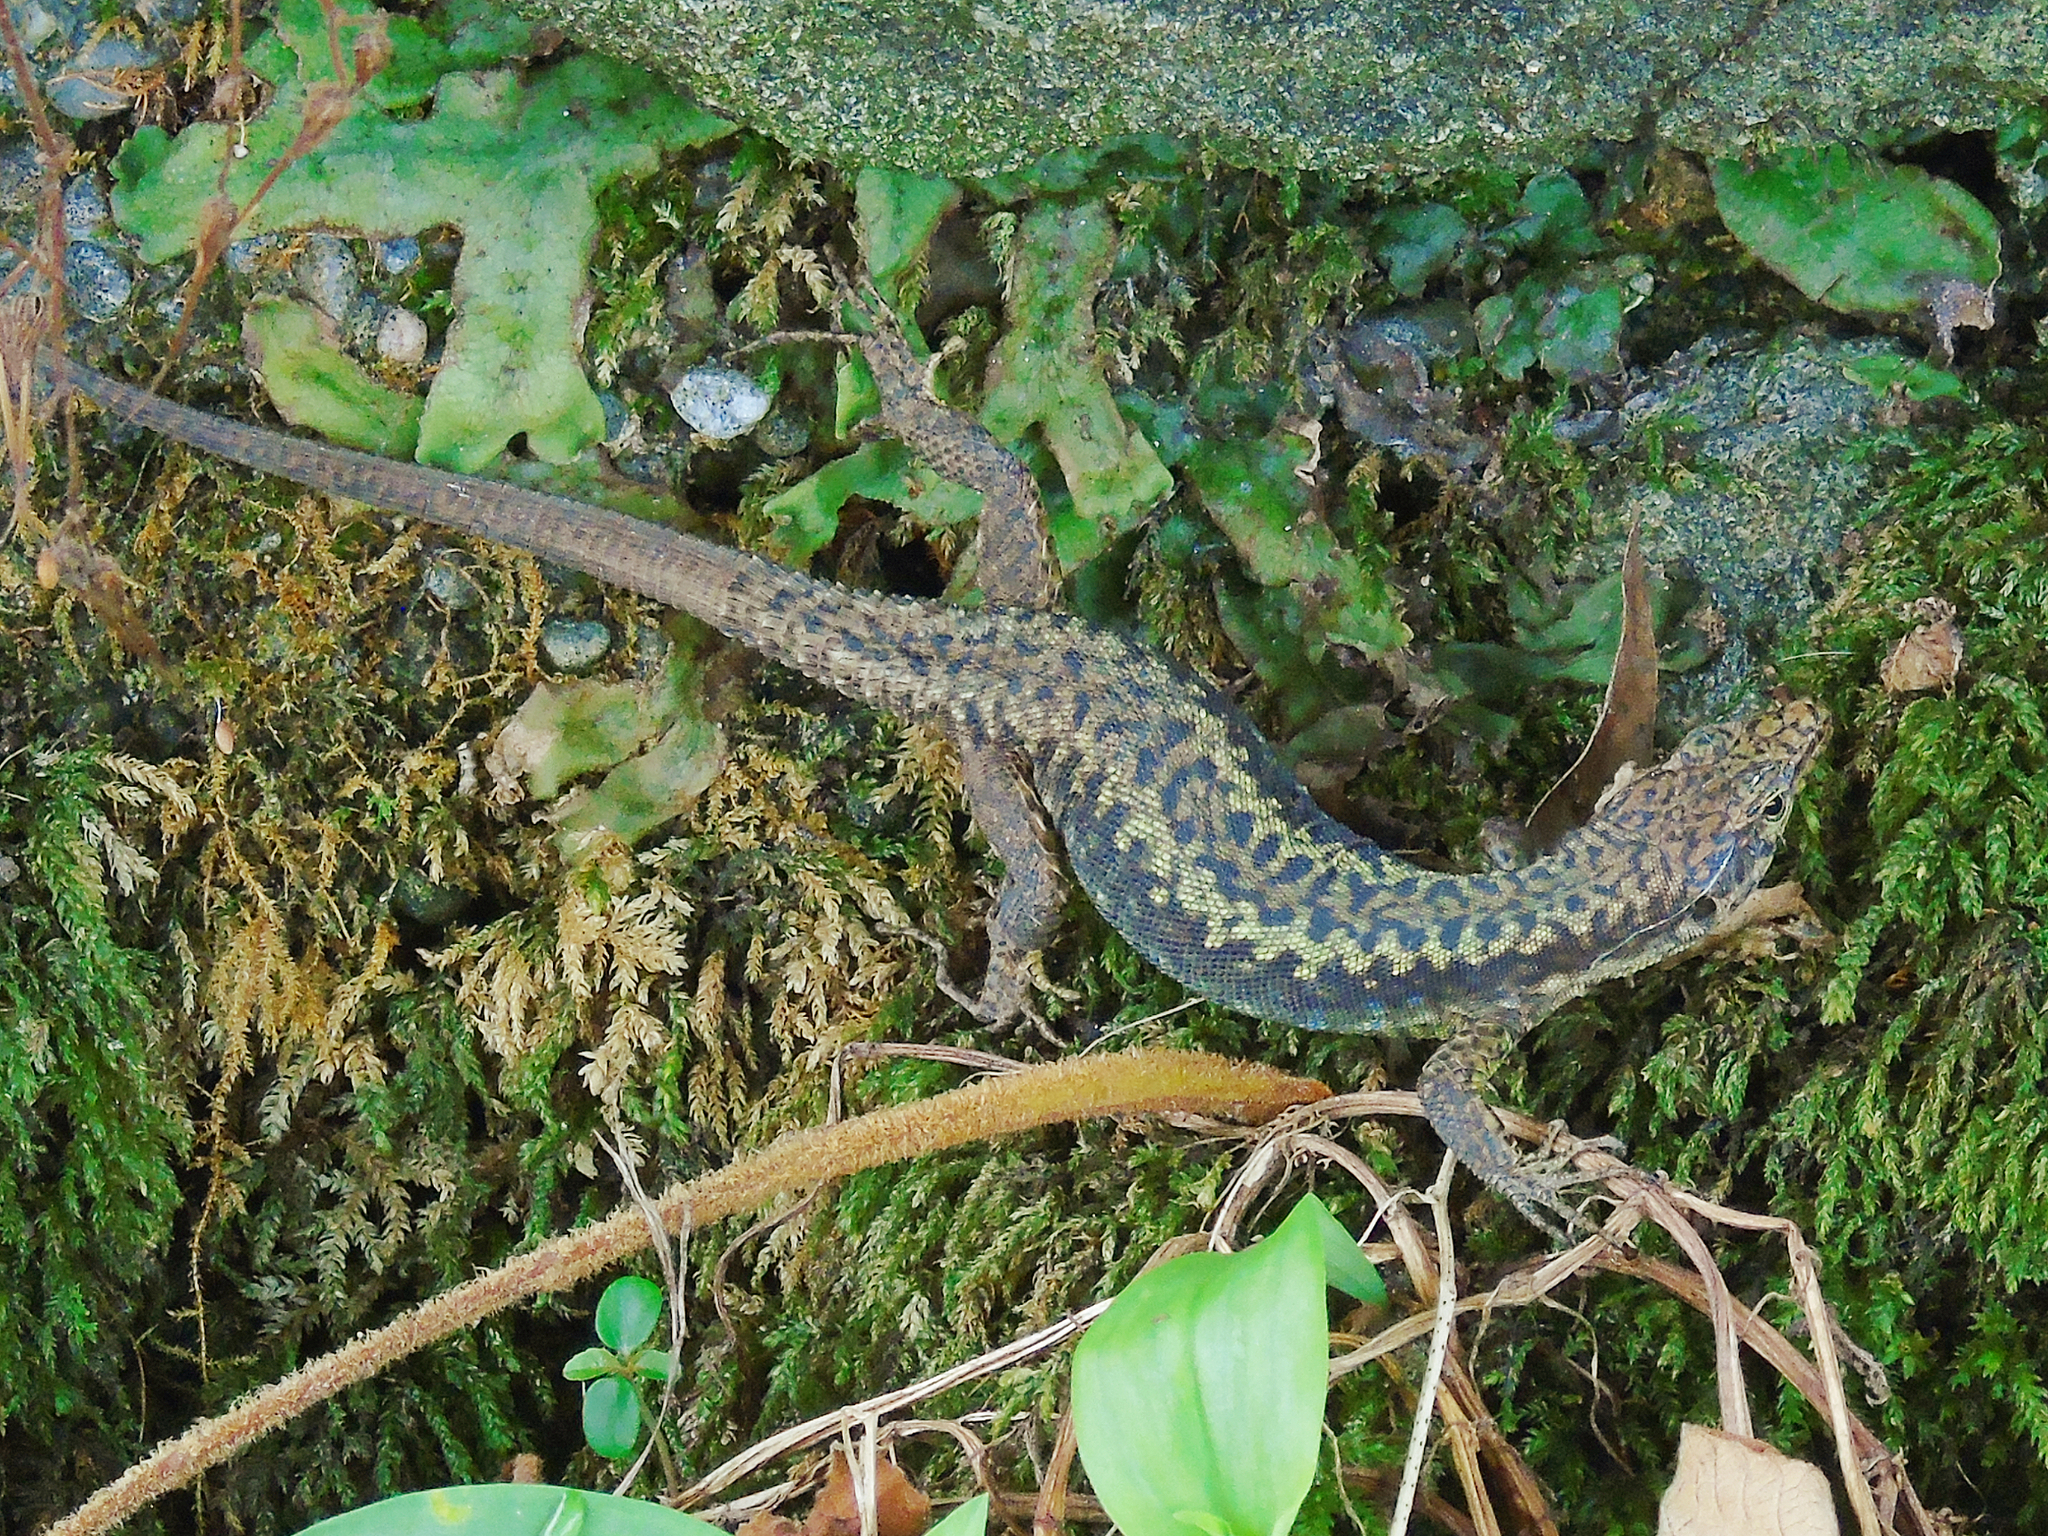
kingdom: Animalia
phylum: Chordata
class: Squamata
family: Lacertidae
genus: Darevskia
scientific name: Darevskia rudis
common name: Spiny-tailed lizard
